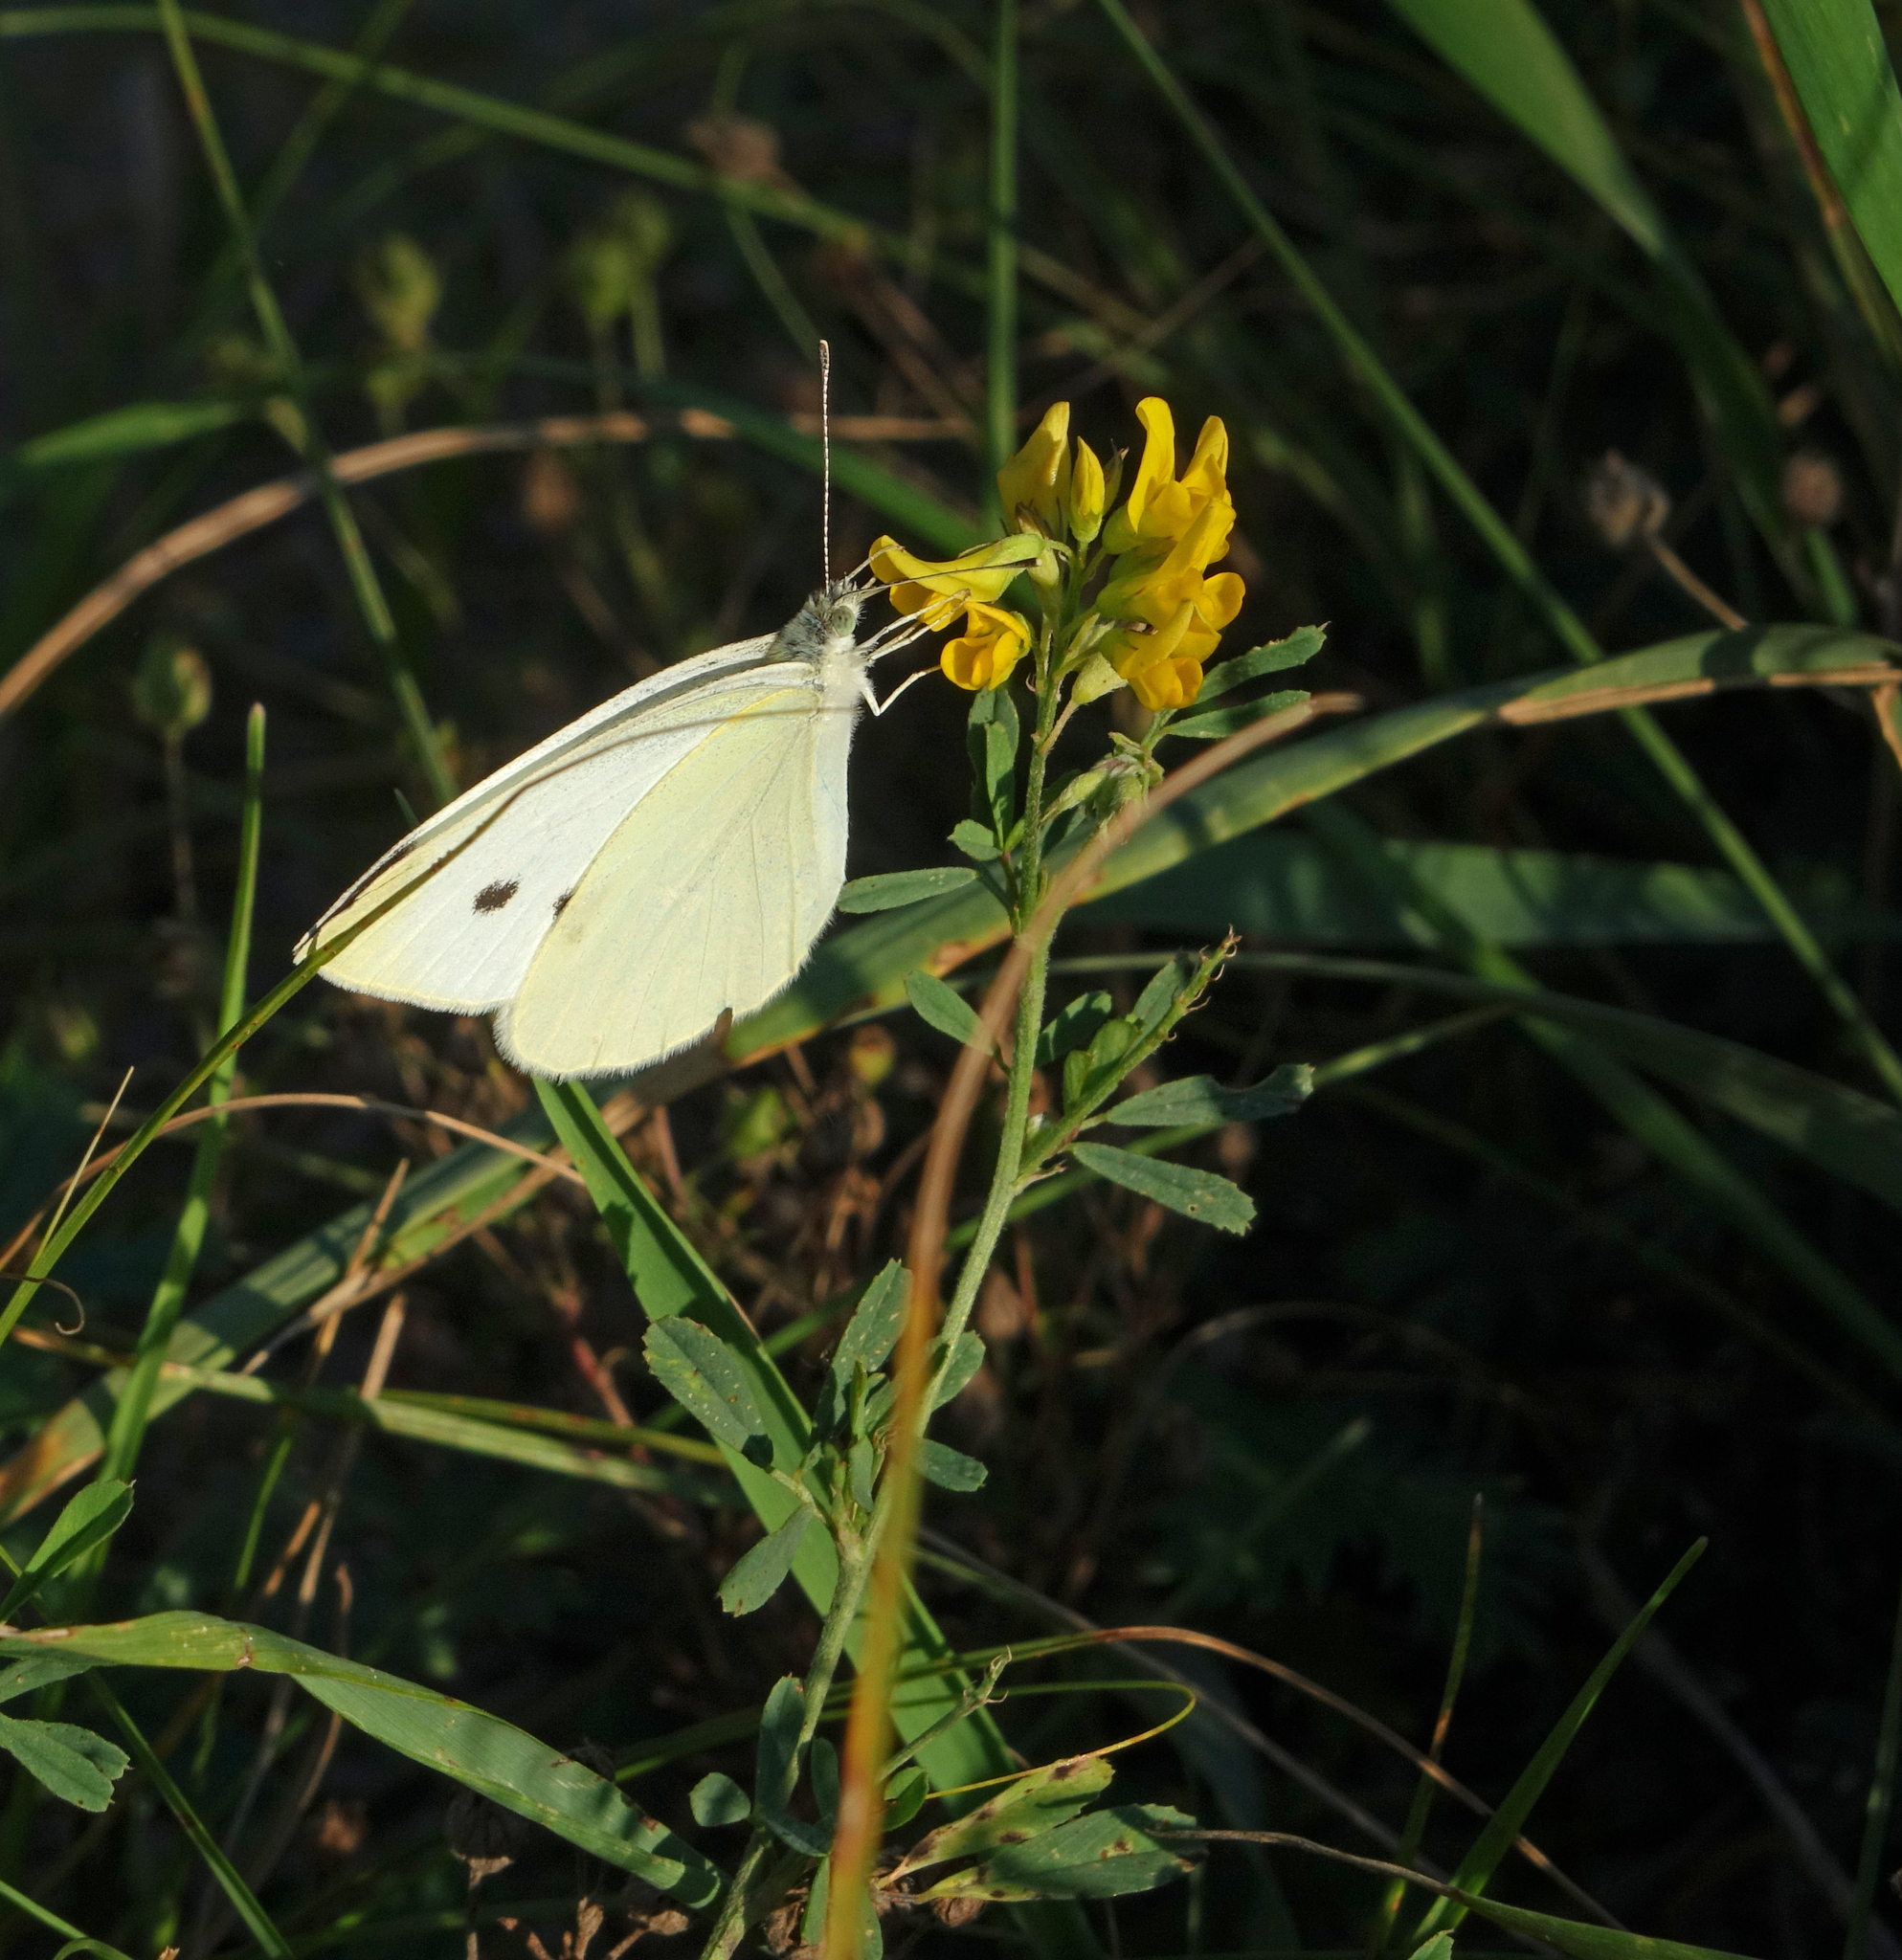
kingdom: Plantae
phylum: Tracheophyta
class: Magnoliopsida
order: Fabales
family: Fabaceae
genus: Medicago
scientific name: Medicago falcata
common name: Sickle medick
